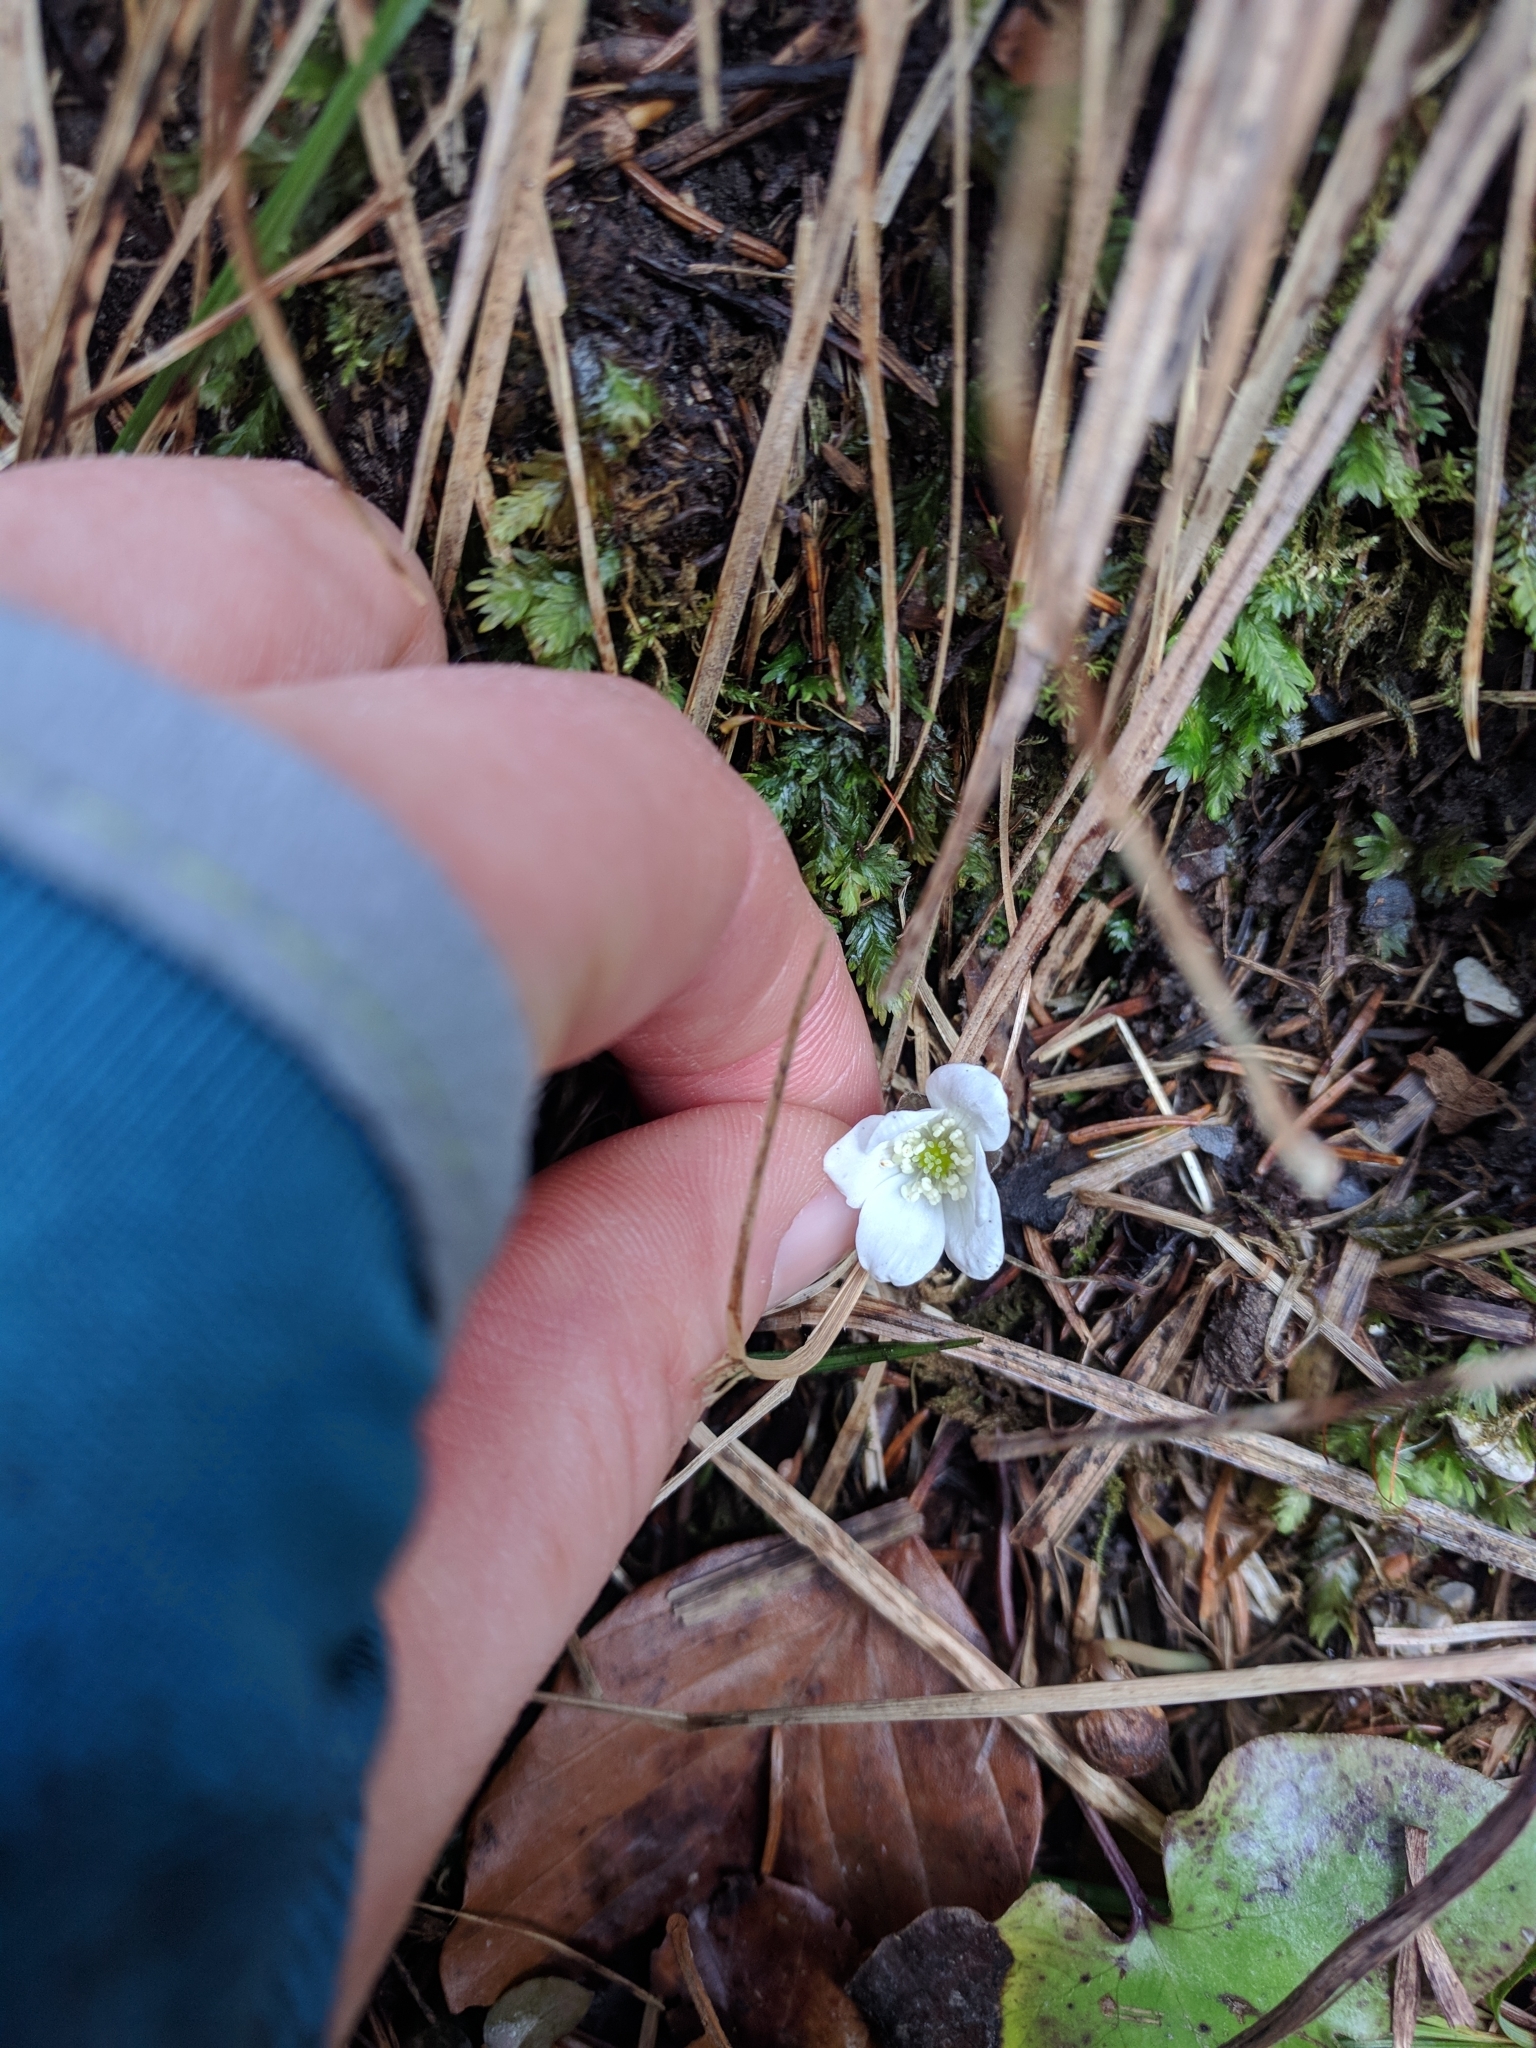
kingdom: Plantae
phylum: Tracheophyta
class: Magnoliopsida
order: Ranunculales
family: Ranunculaceae
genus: Hepatica
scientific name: Hepatica nobilis
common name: Liverleaf
